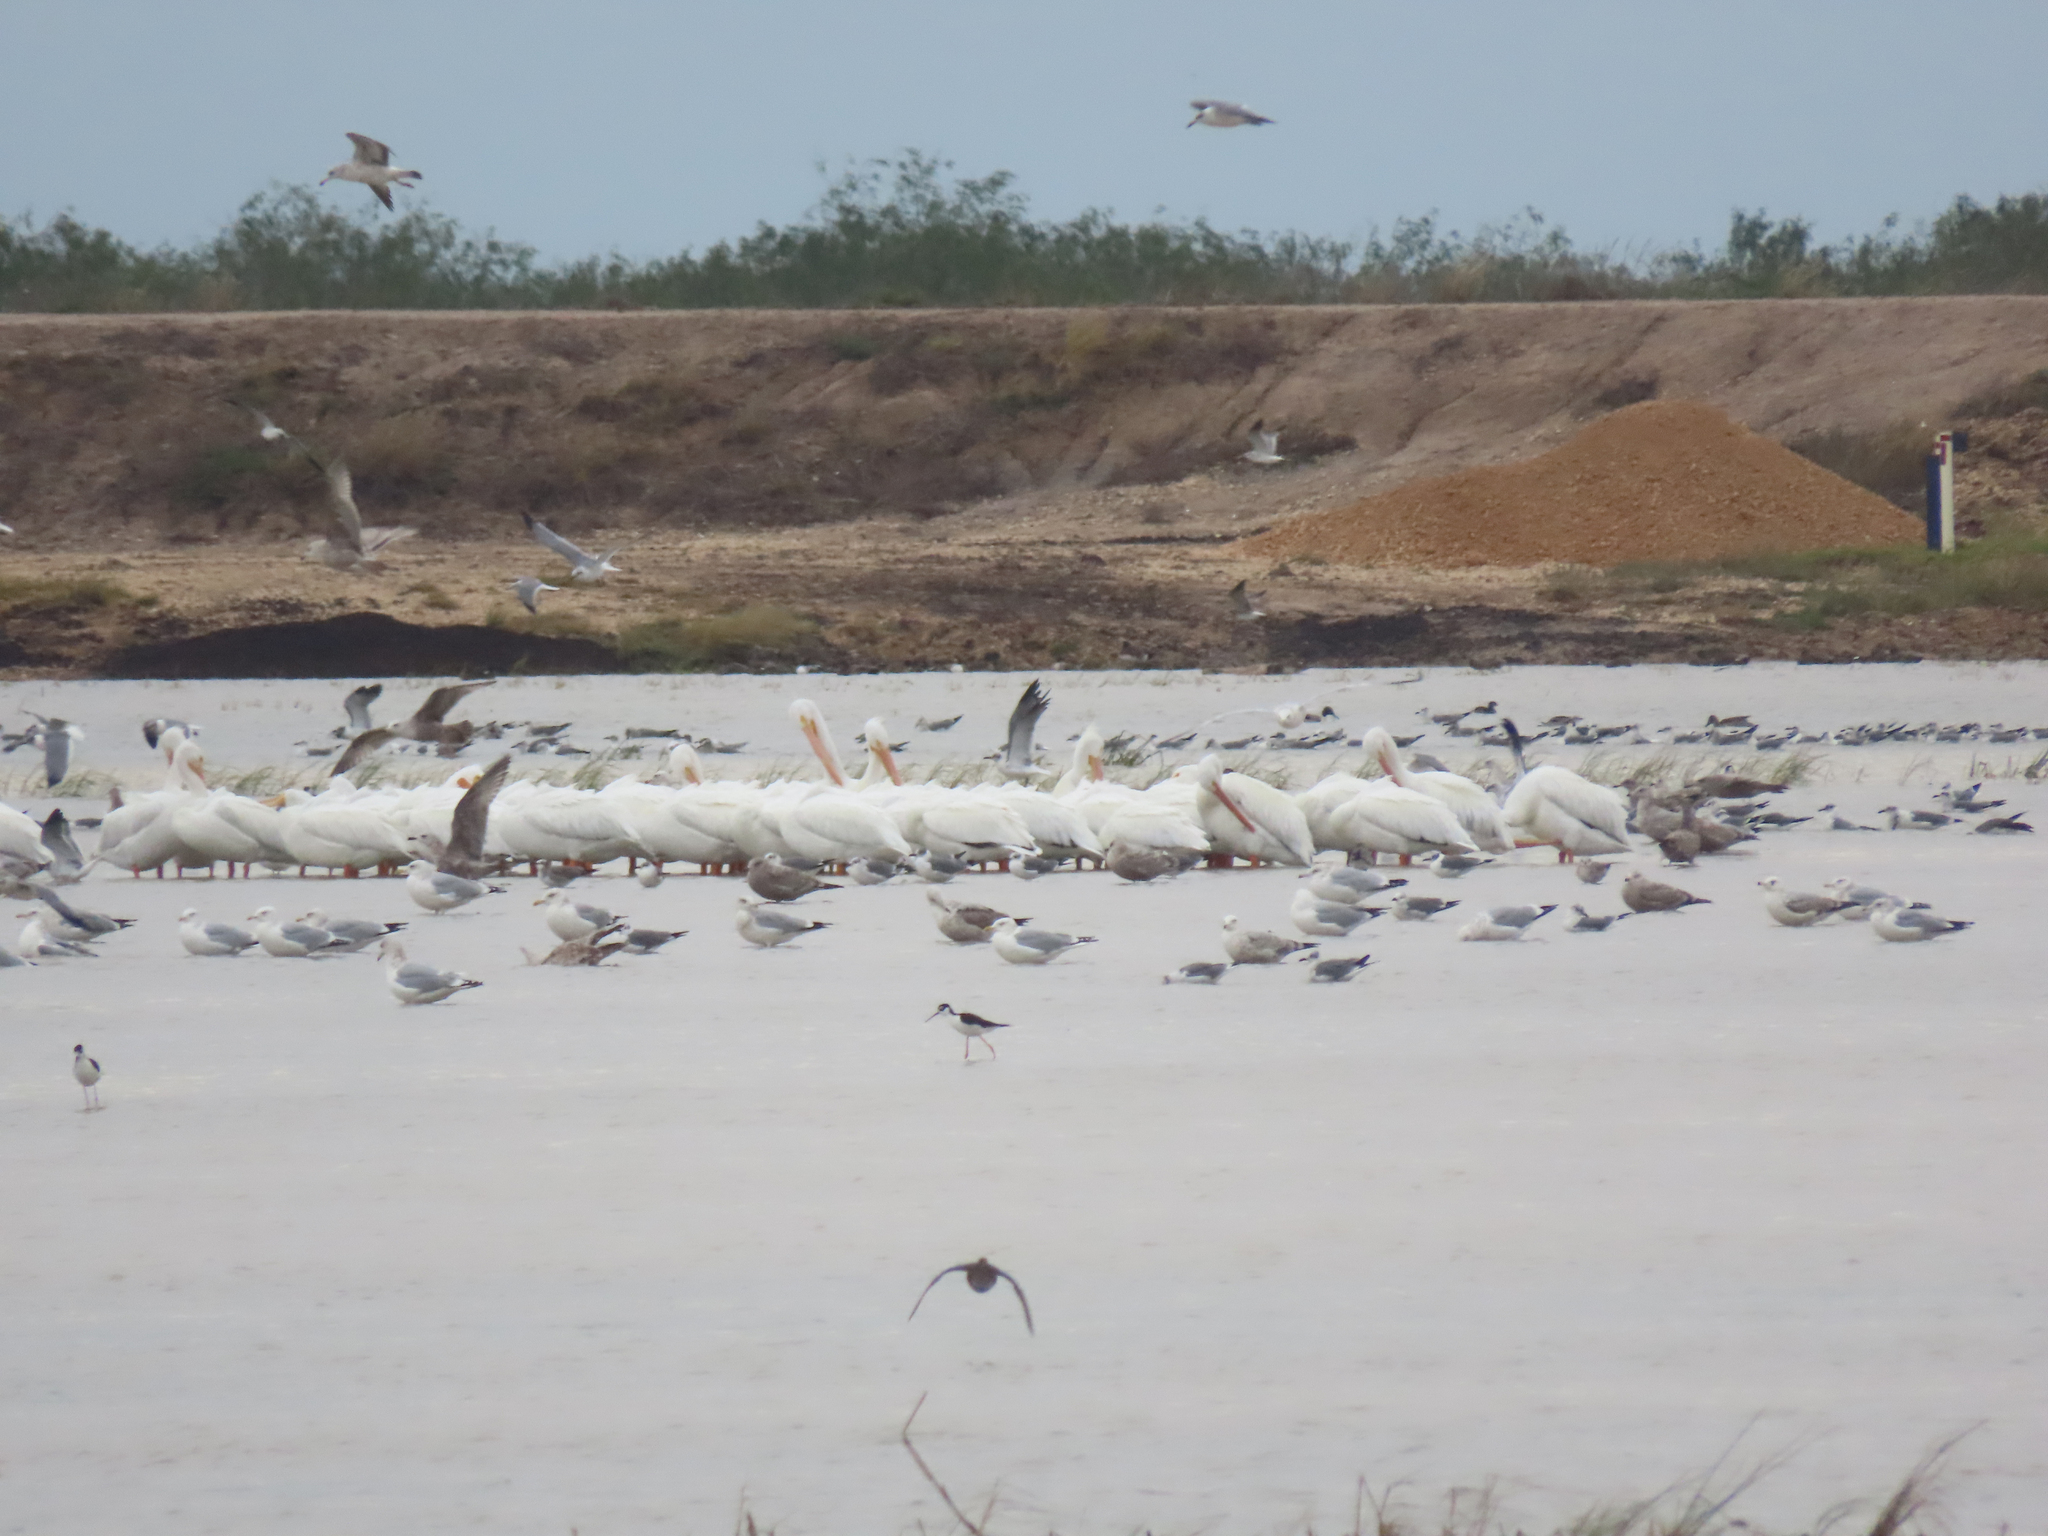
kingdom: Animalia
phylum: Chordata
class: Aves
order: Pelecaniformes
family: Pelecanidae
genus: Pelecanus
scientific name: Pelecanus erythrorhynchos
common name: American white pelican
